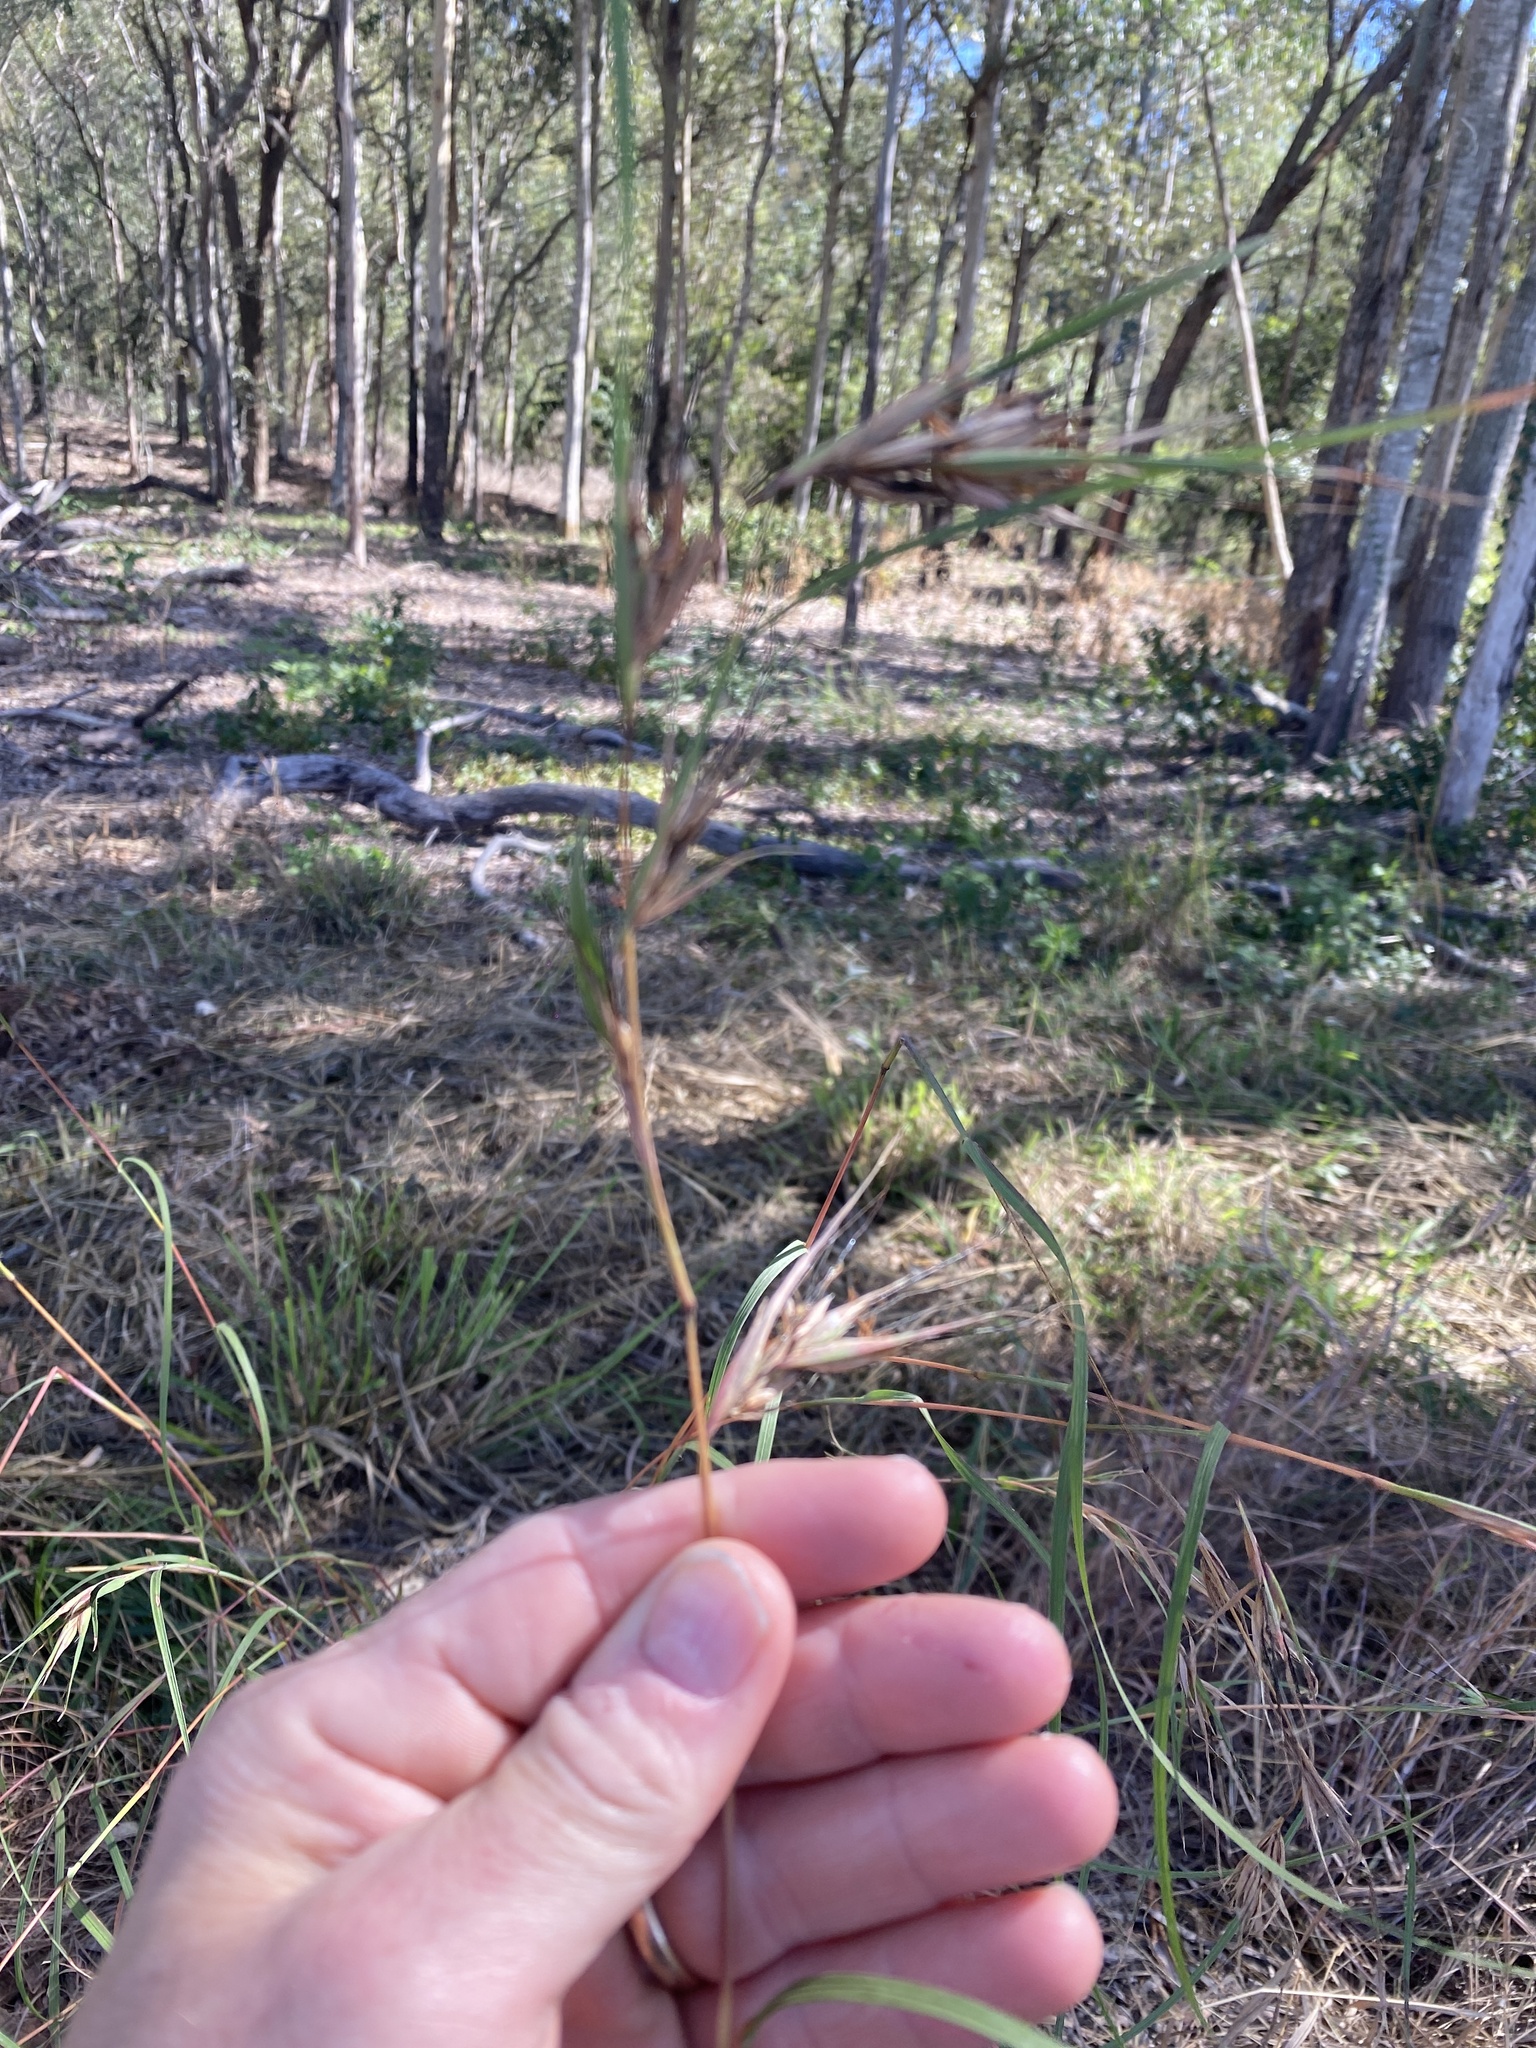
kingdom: Plantae
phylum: Tracheophyta
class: Liliopsida
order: Poales
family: Poaceae
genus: Themeda
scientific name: Themeda triandra
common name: Kangaroo grass
